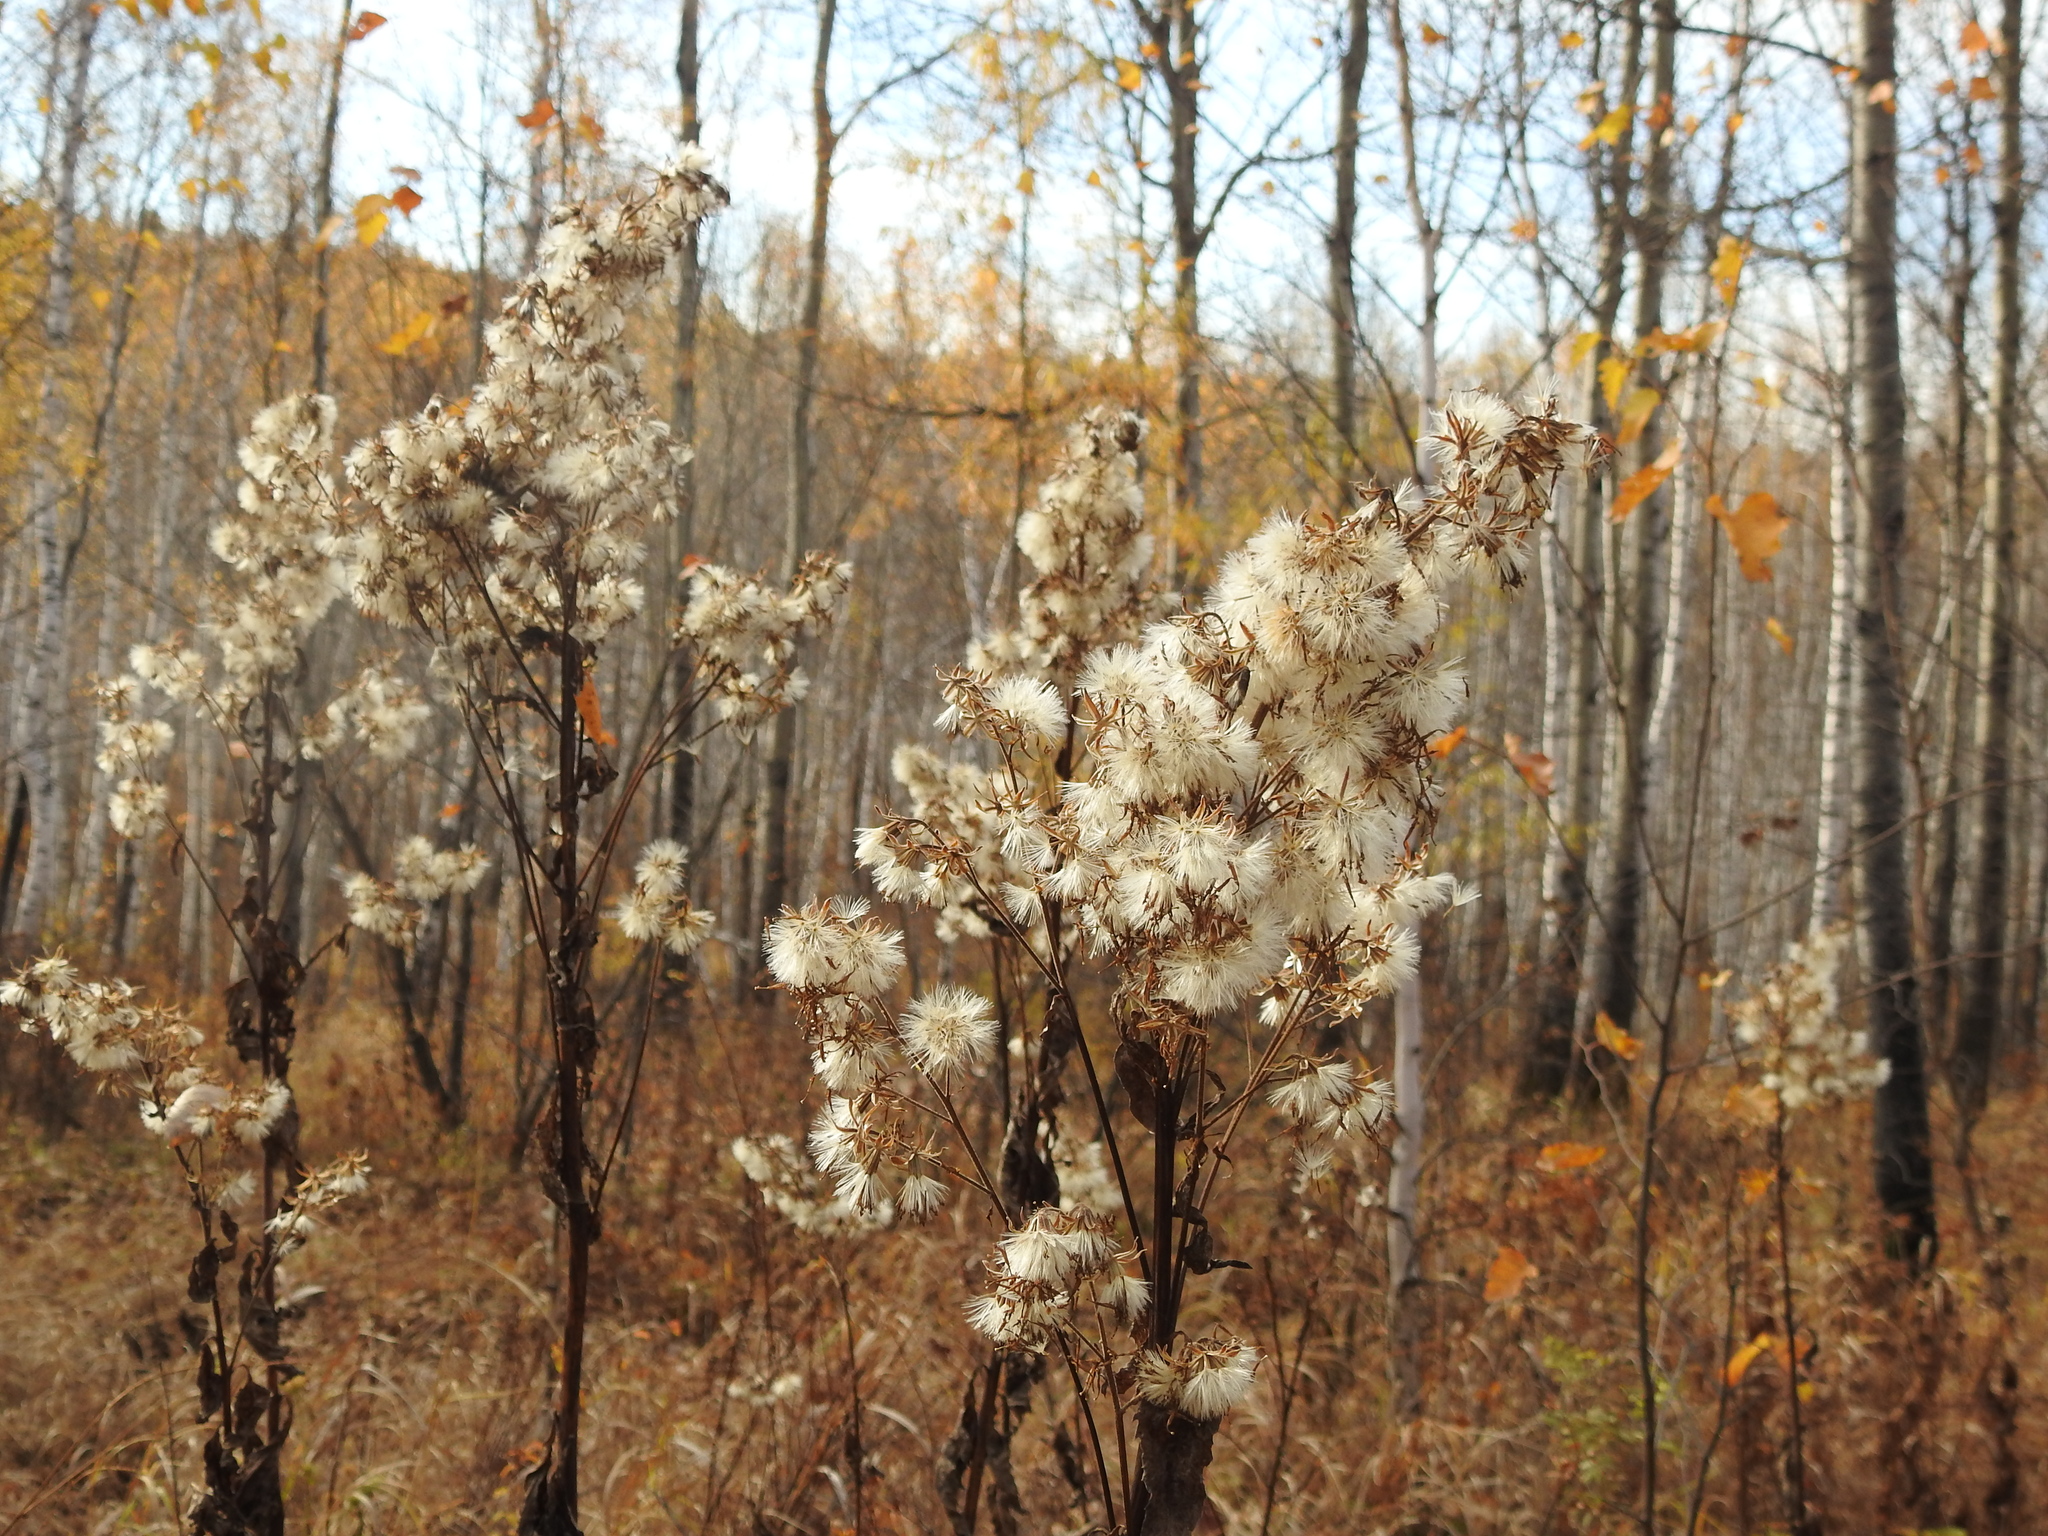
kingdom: Plantae
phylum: Tracheophyta
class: Magnoliopsida
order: Asterales
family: Asteraceae
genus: Parasenecio
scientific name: Parasenecio hastatus
